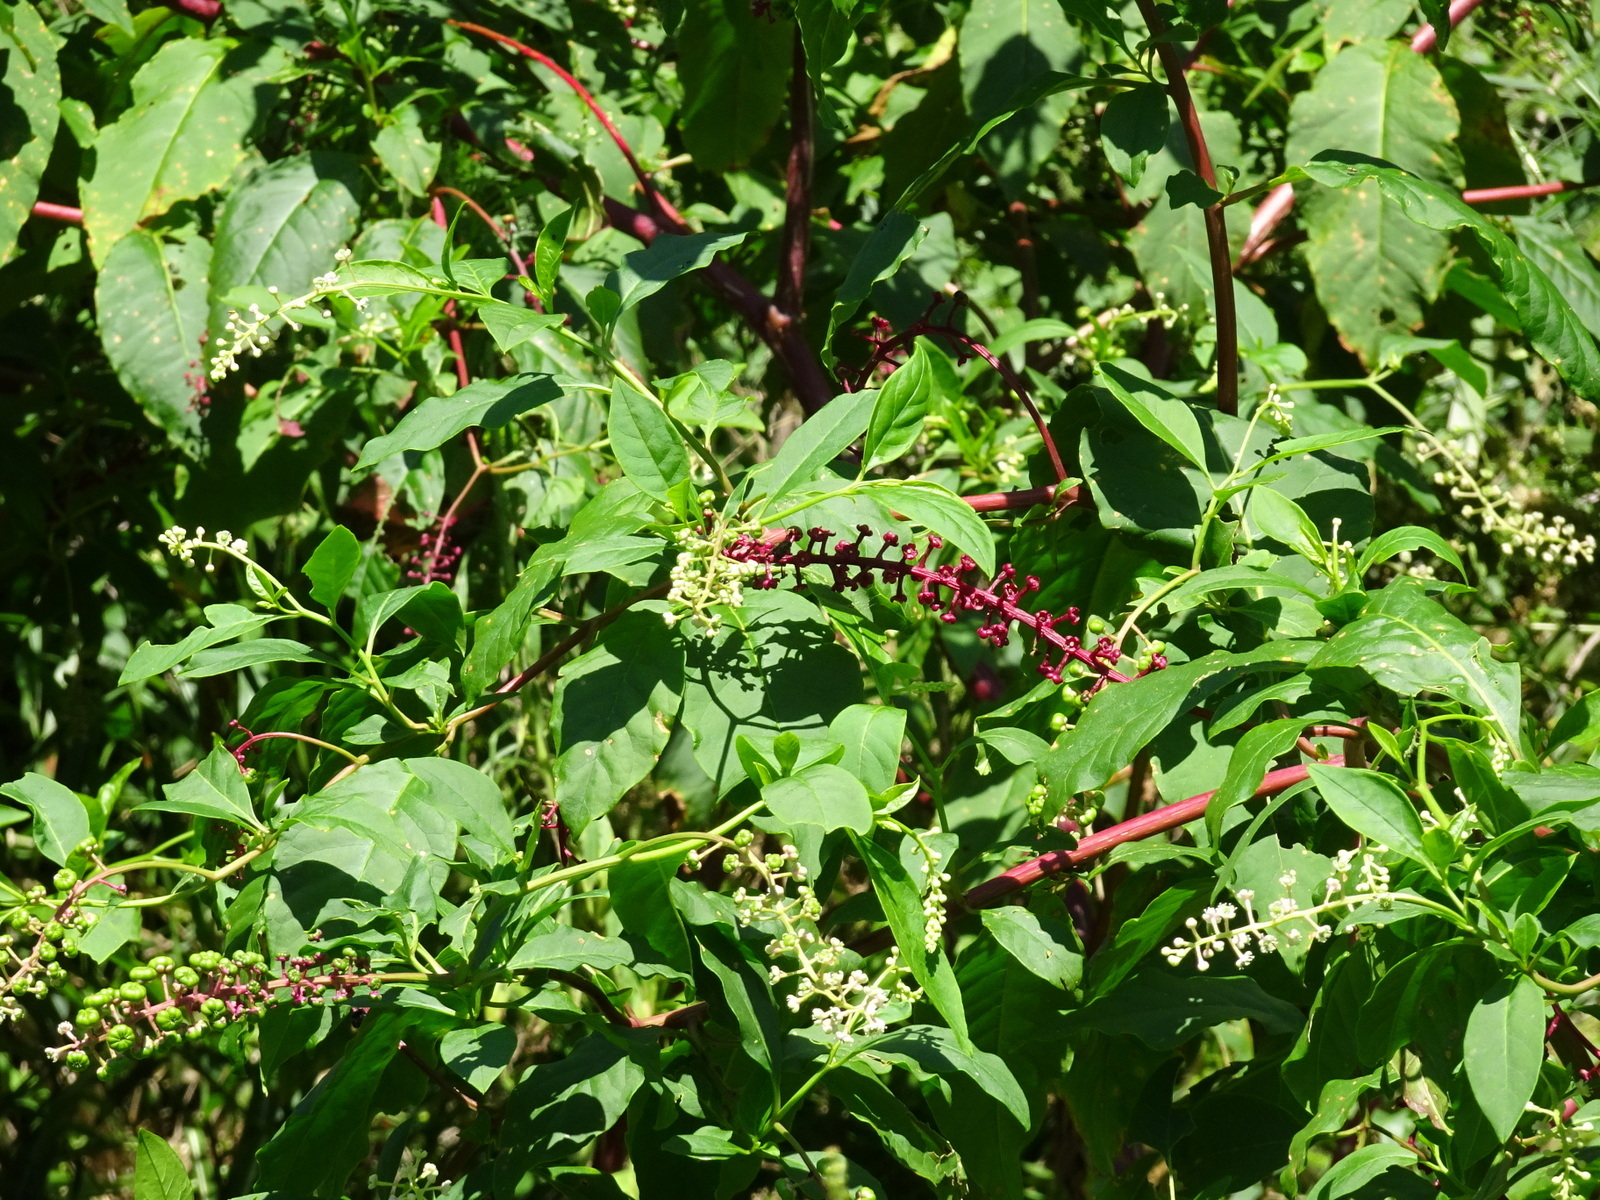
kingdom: Plantae
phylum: Tracheophyta
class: Magnoliopsida
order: Caryophyllales
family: Phytolaccaceae
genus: Phytolacca
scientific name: Phytolacca americana
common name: American pokeweed
